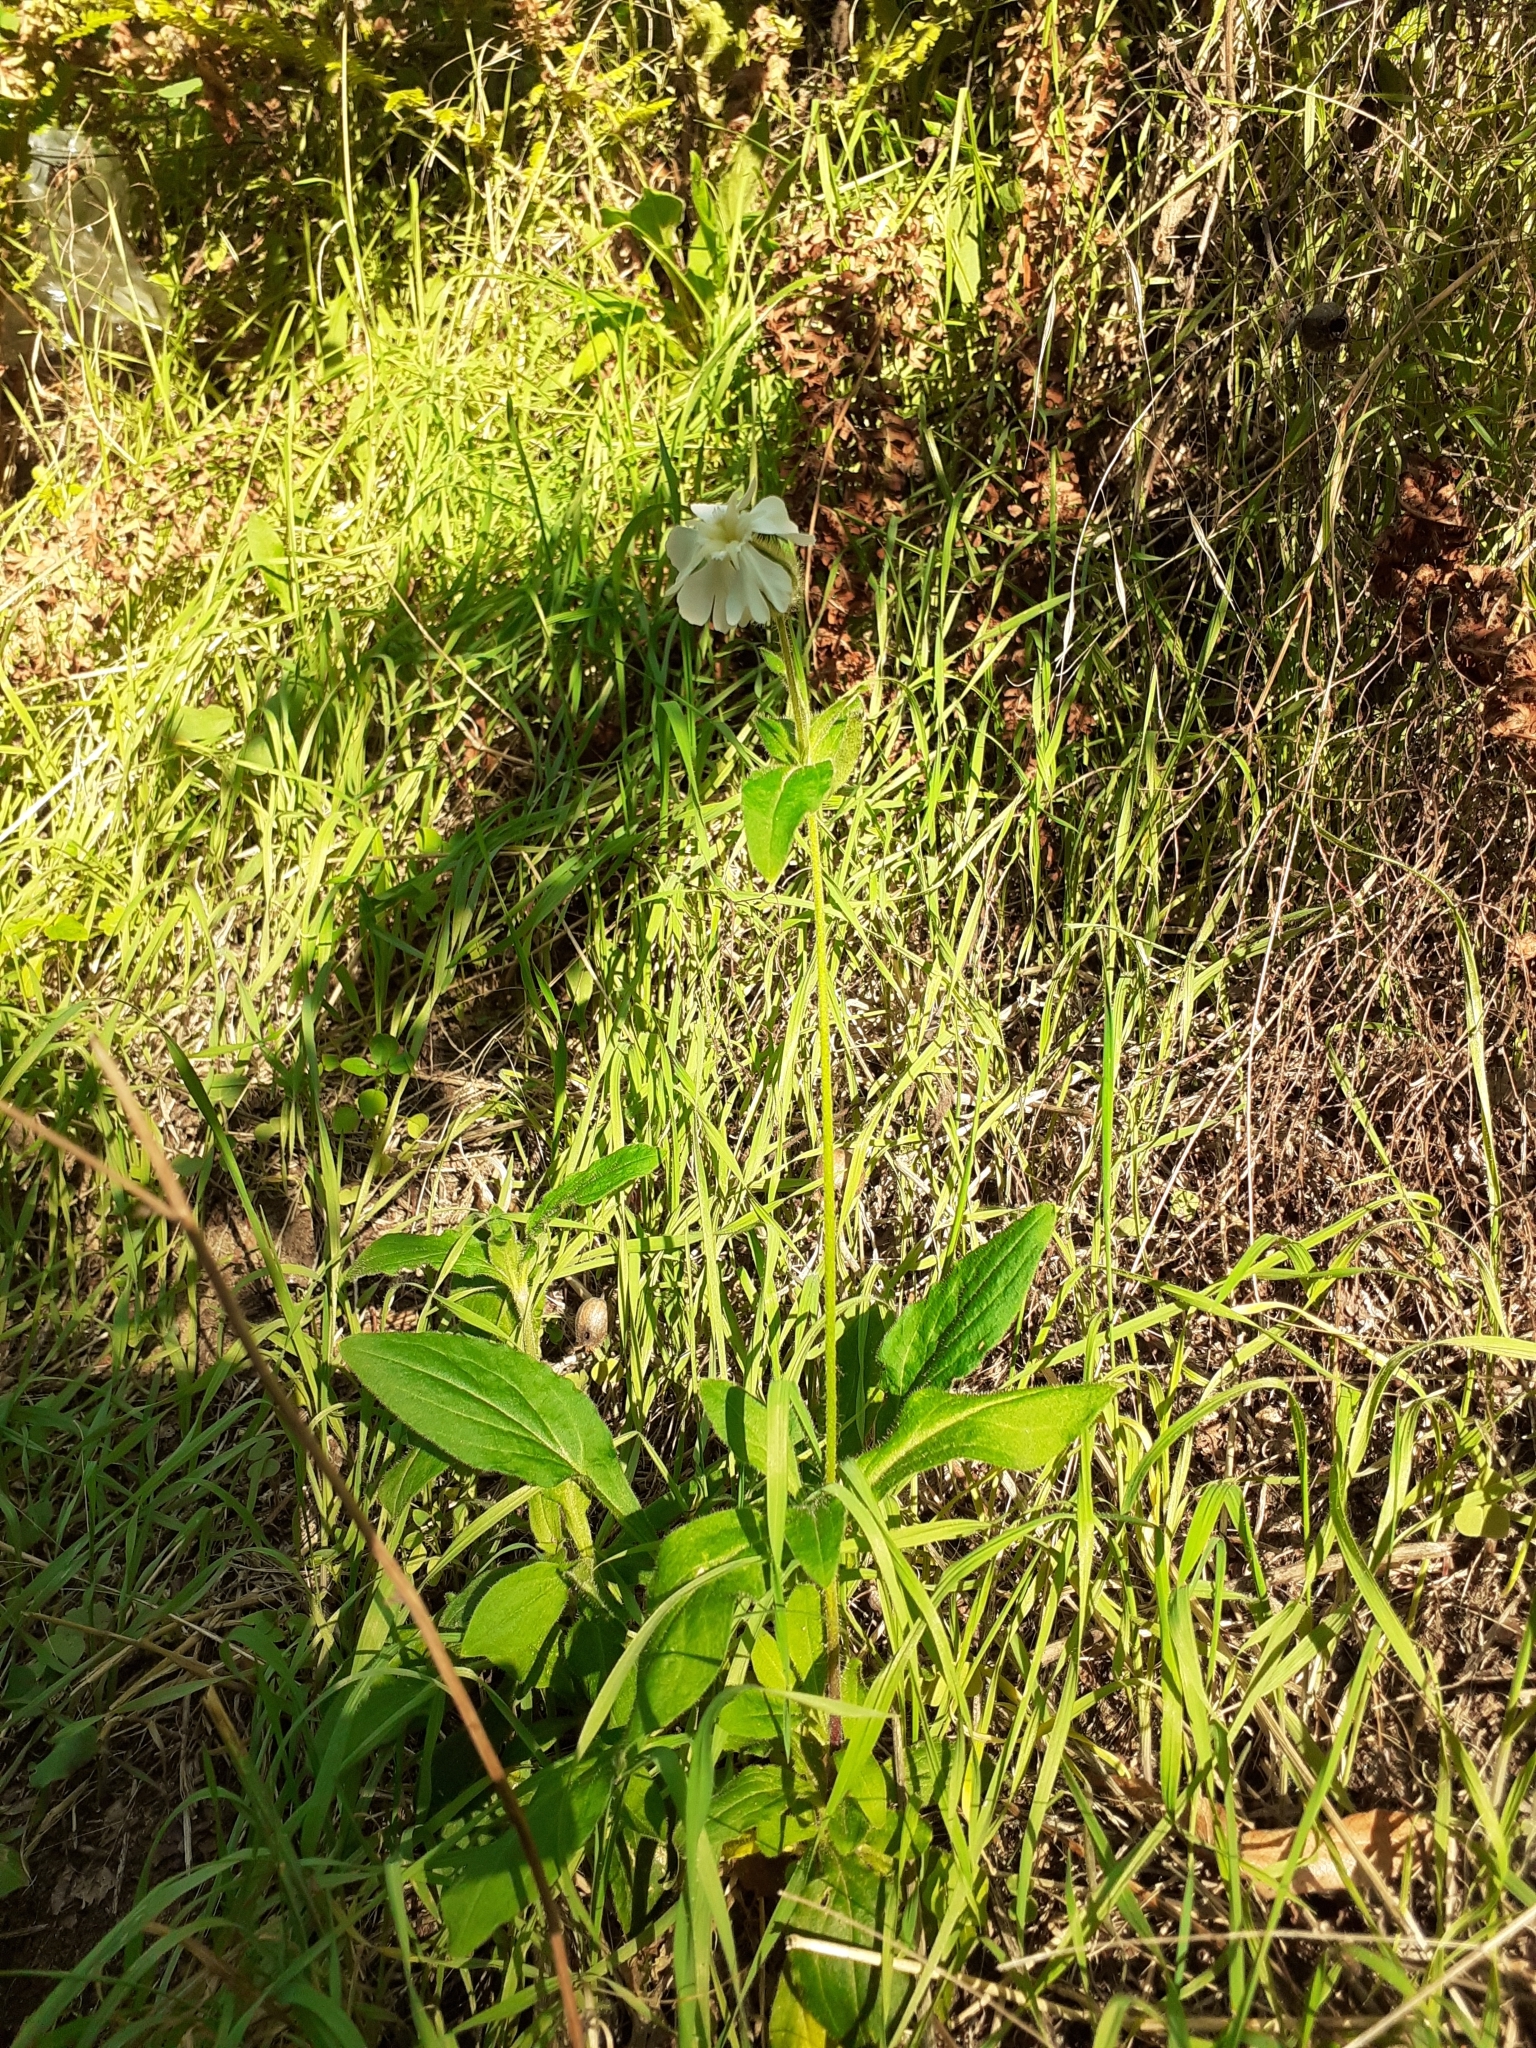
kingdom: Plantae
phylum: Tracheophyta
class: Magnoliopsida
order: Caryophyllales
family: Caryophyllaceae
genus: Silene
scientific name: Silene latifolia
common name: White campion
